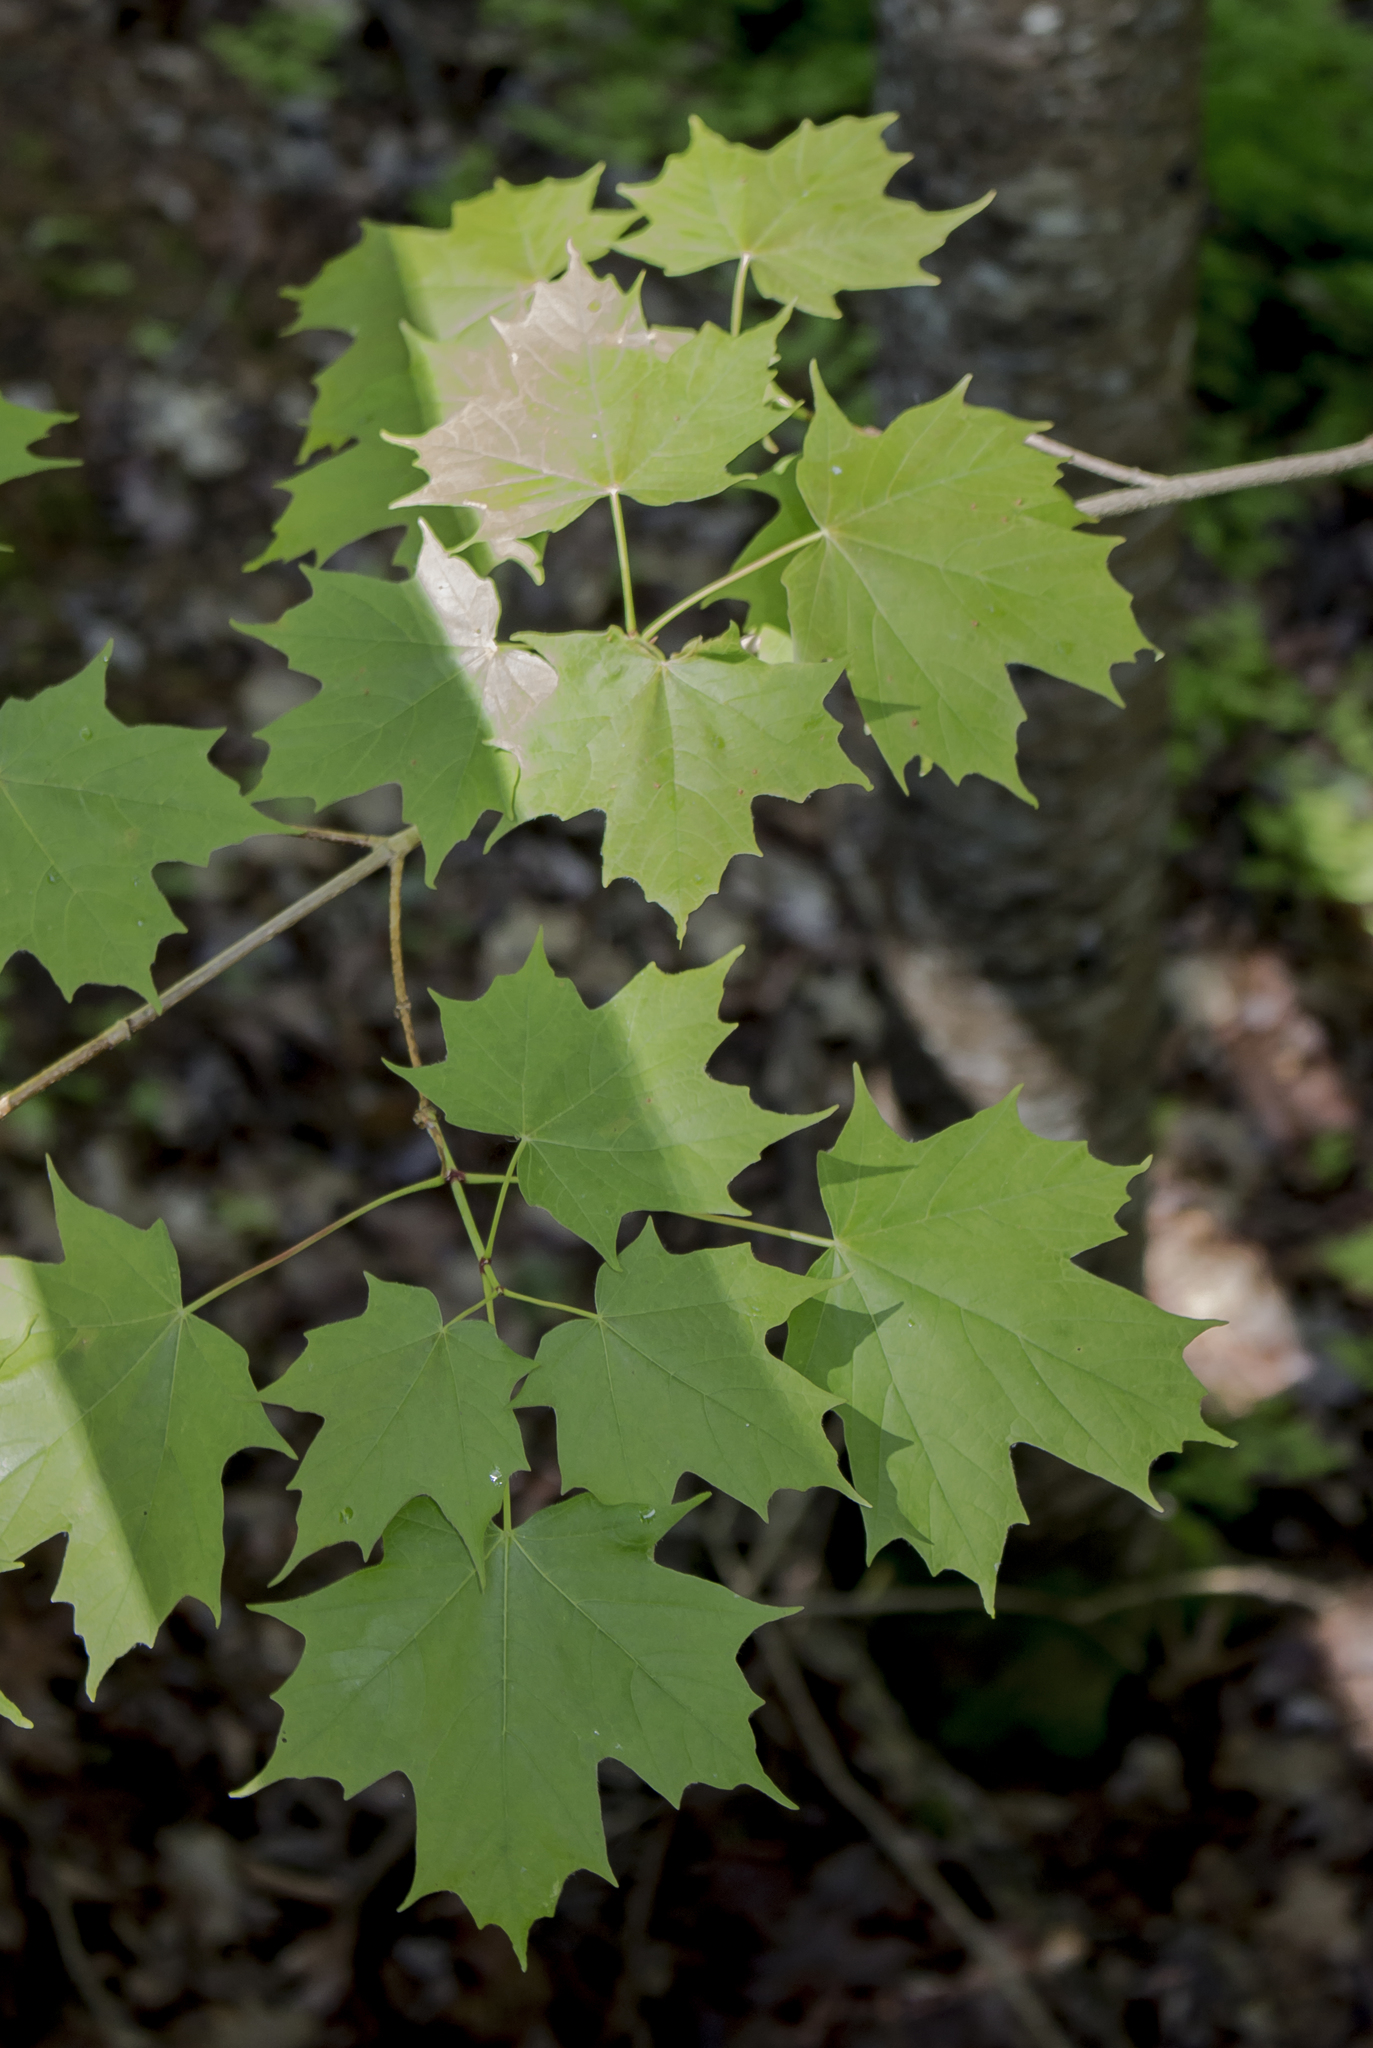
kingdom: Plantae
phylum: Tracheophyta
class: Magnoliopsida
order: Sapindales
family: Sapindaceae
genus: Acer
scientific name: Acer saccharum
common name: Sugar maple
